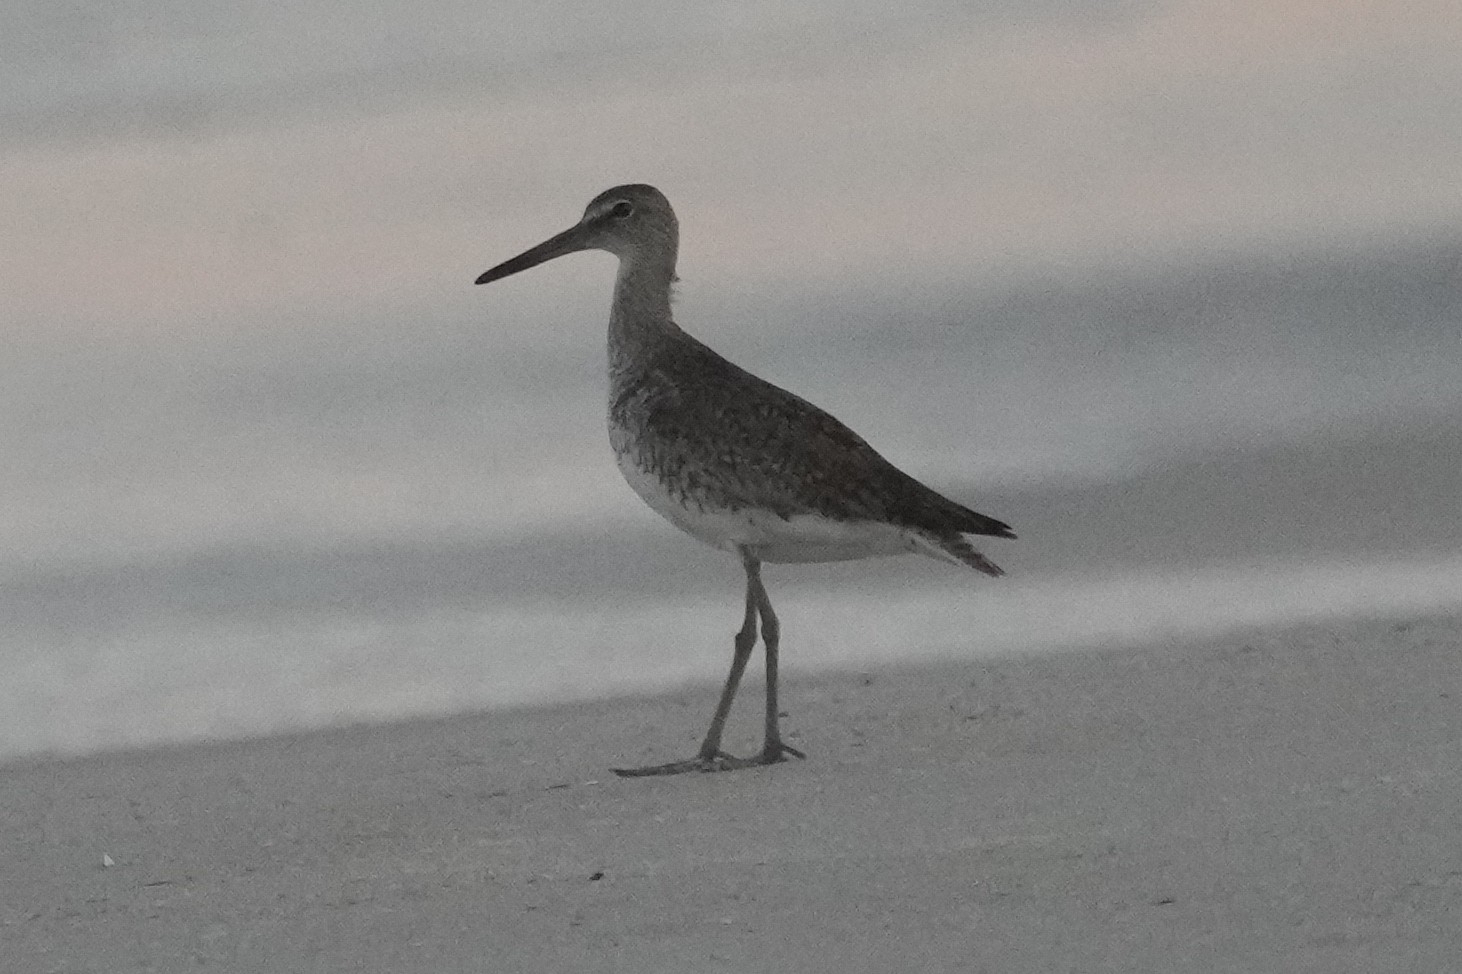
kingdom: Animalia
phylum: Chordata
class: Aves
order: Charadriiformes
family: Scolopacidae
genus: Tringa
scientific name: Tringa semipalmata
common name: Willet
